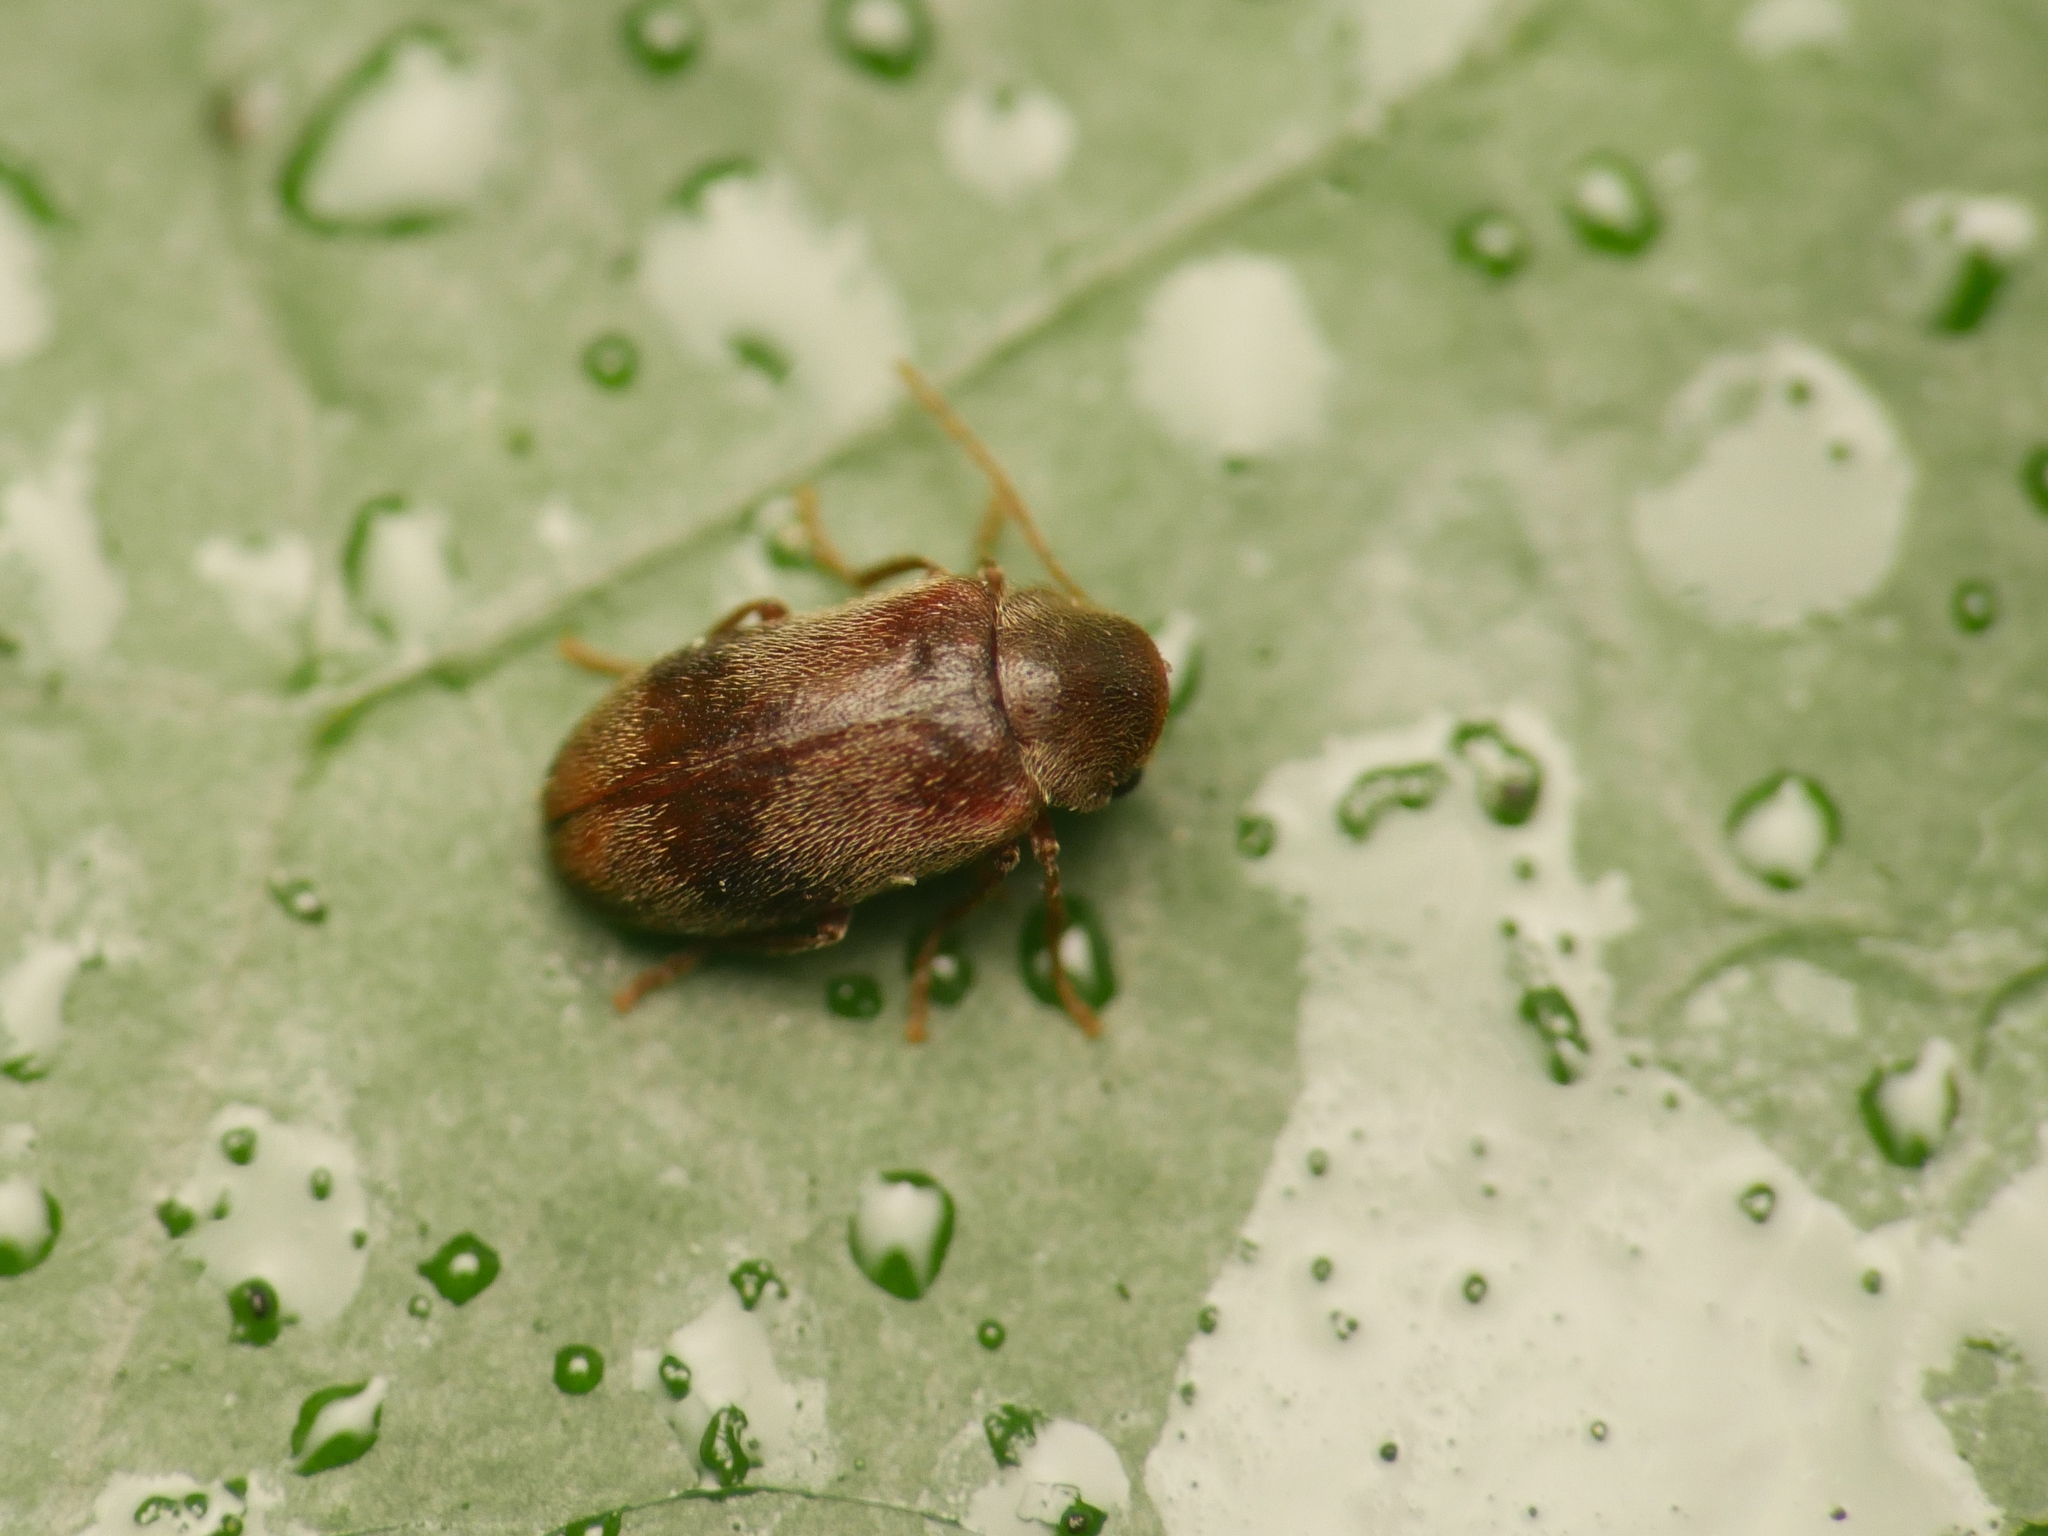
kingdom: Animalia
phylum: Arthropoda
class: Insecta
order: Coleoptera
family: Ptinidae
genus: Ochina
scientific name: Ochina ptinoides
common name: Ivy boring beetle
